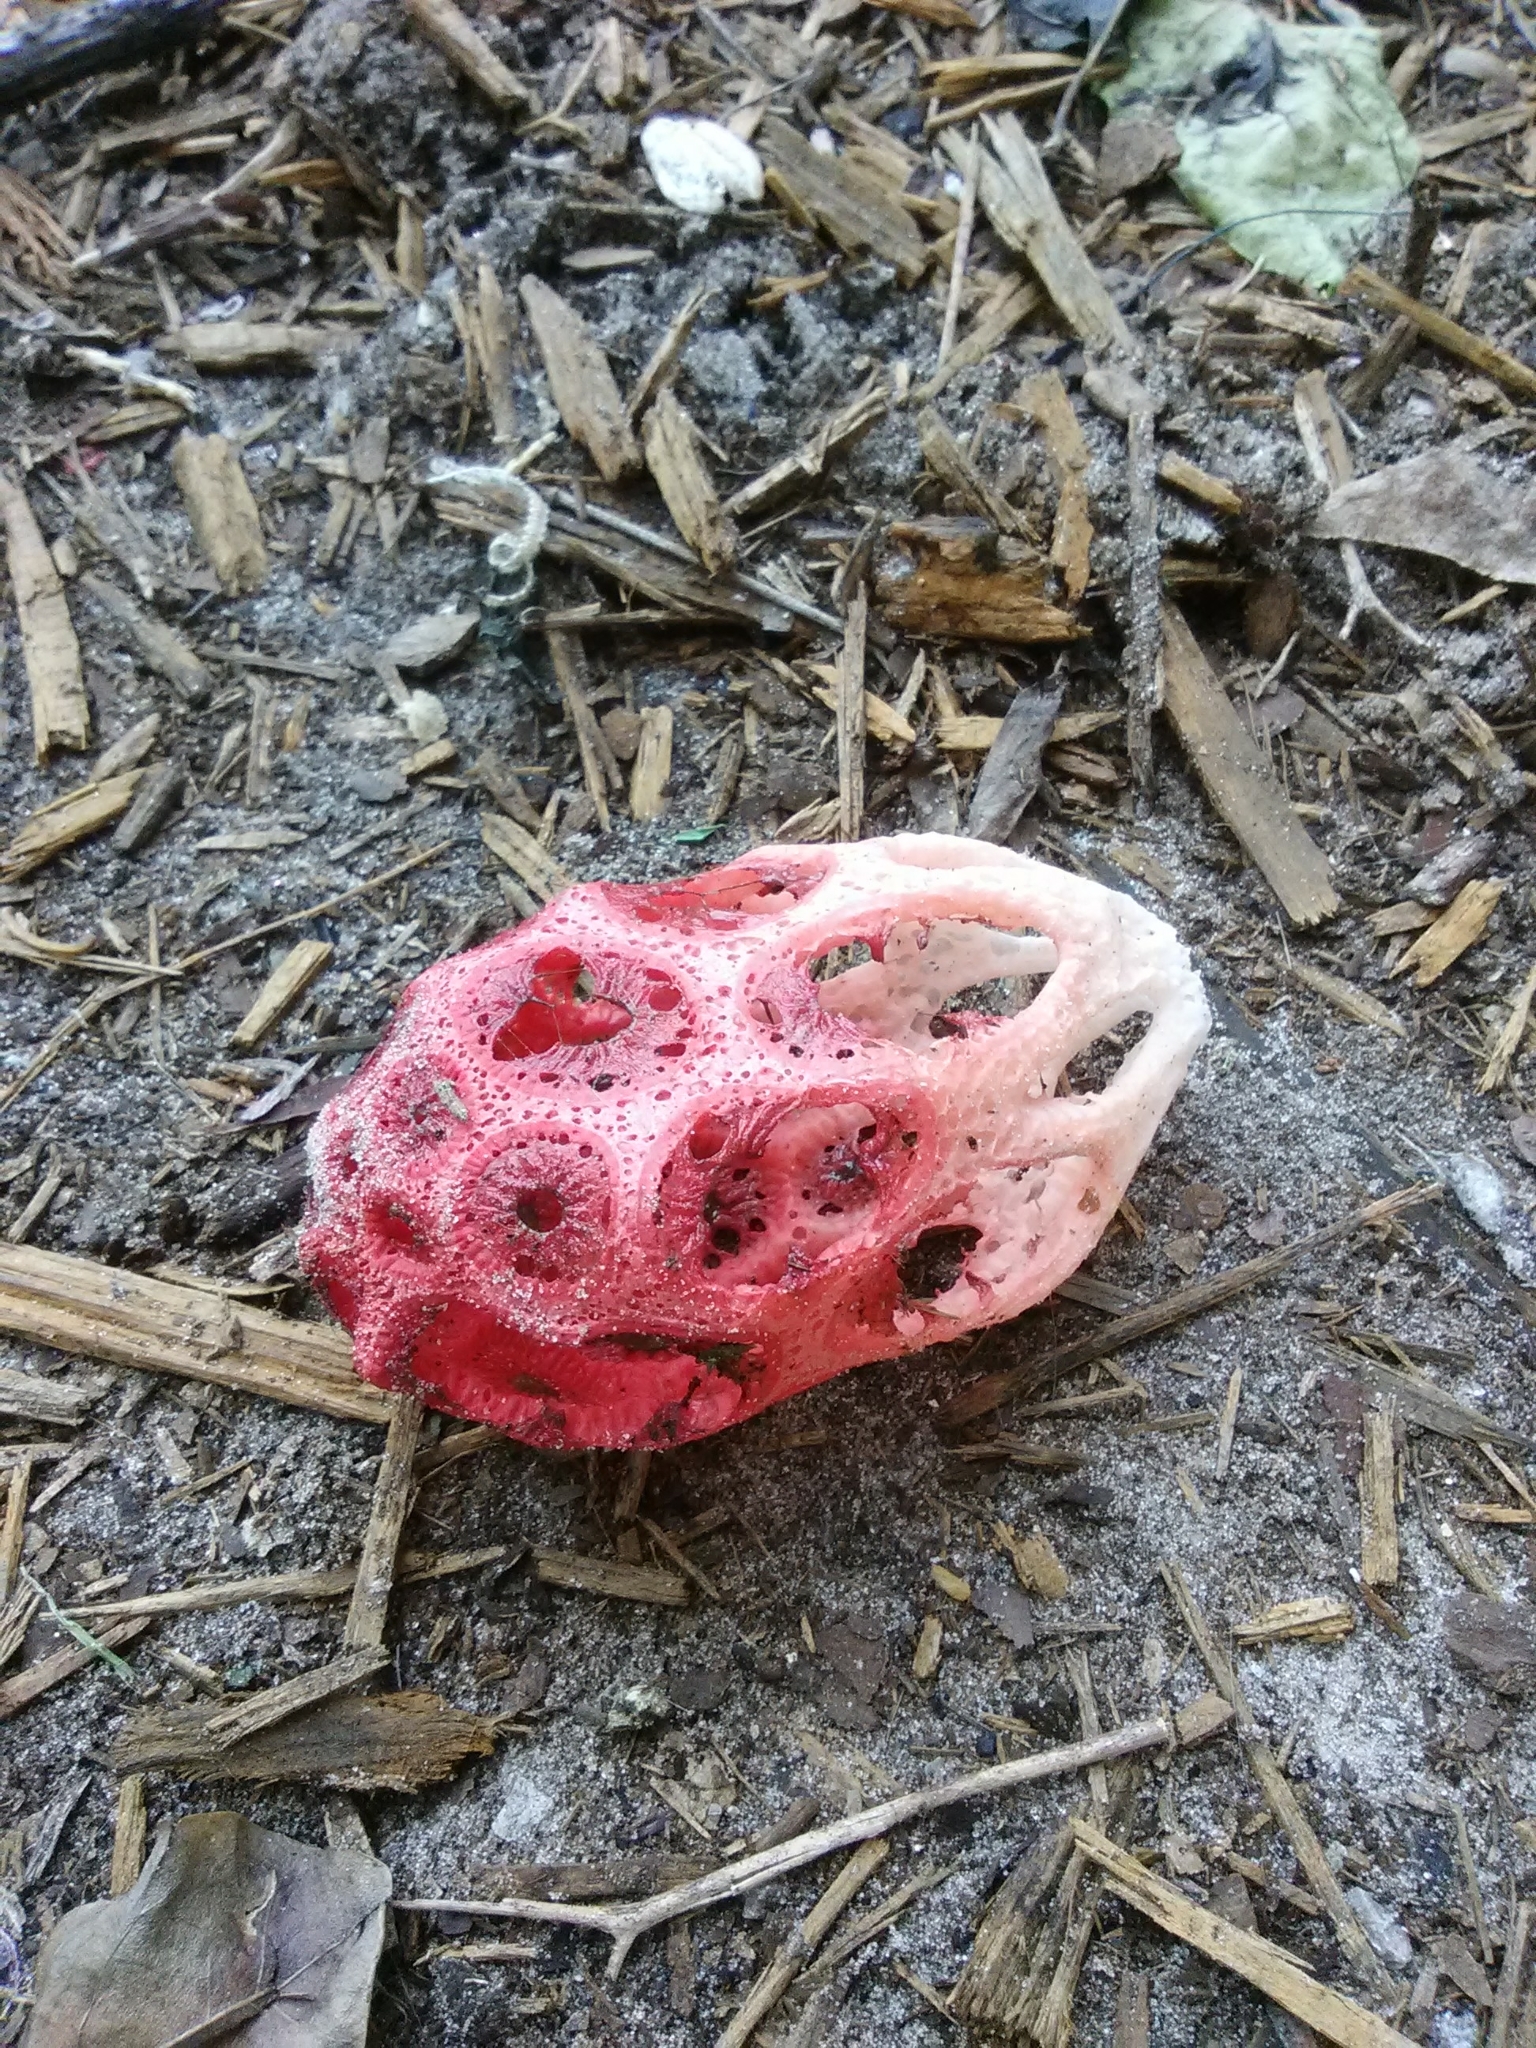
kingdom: Fungi
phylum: Basidiomycota
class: Agaricomycetes
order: Phallales
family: Phallaceae
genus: Clathrus
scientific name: Clathrus crispatus
